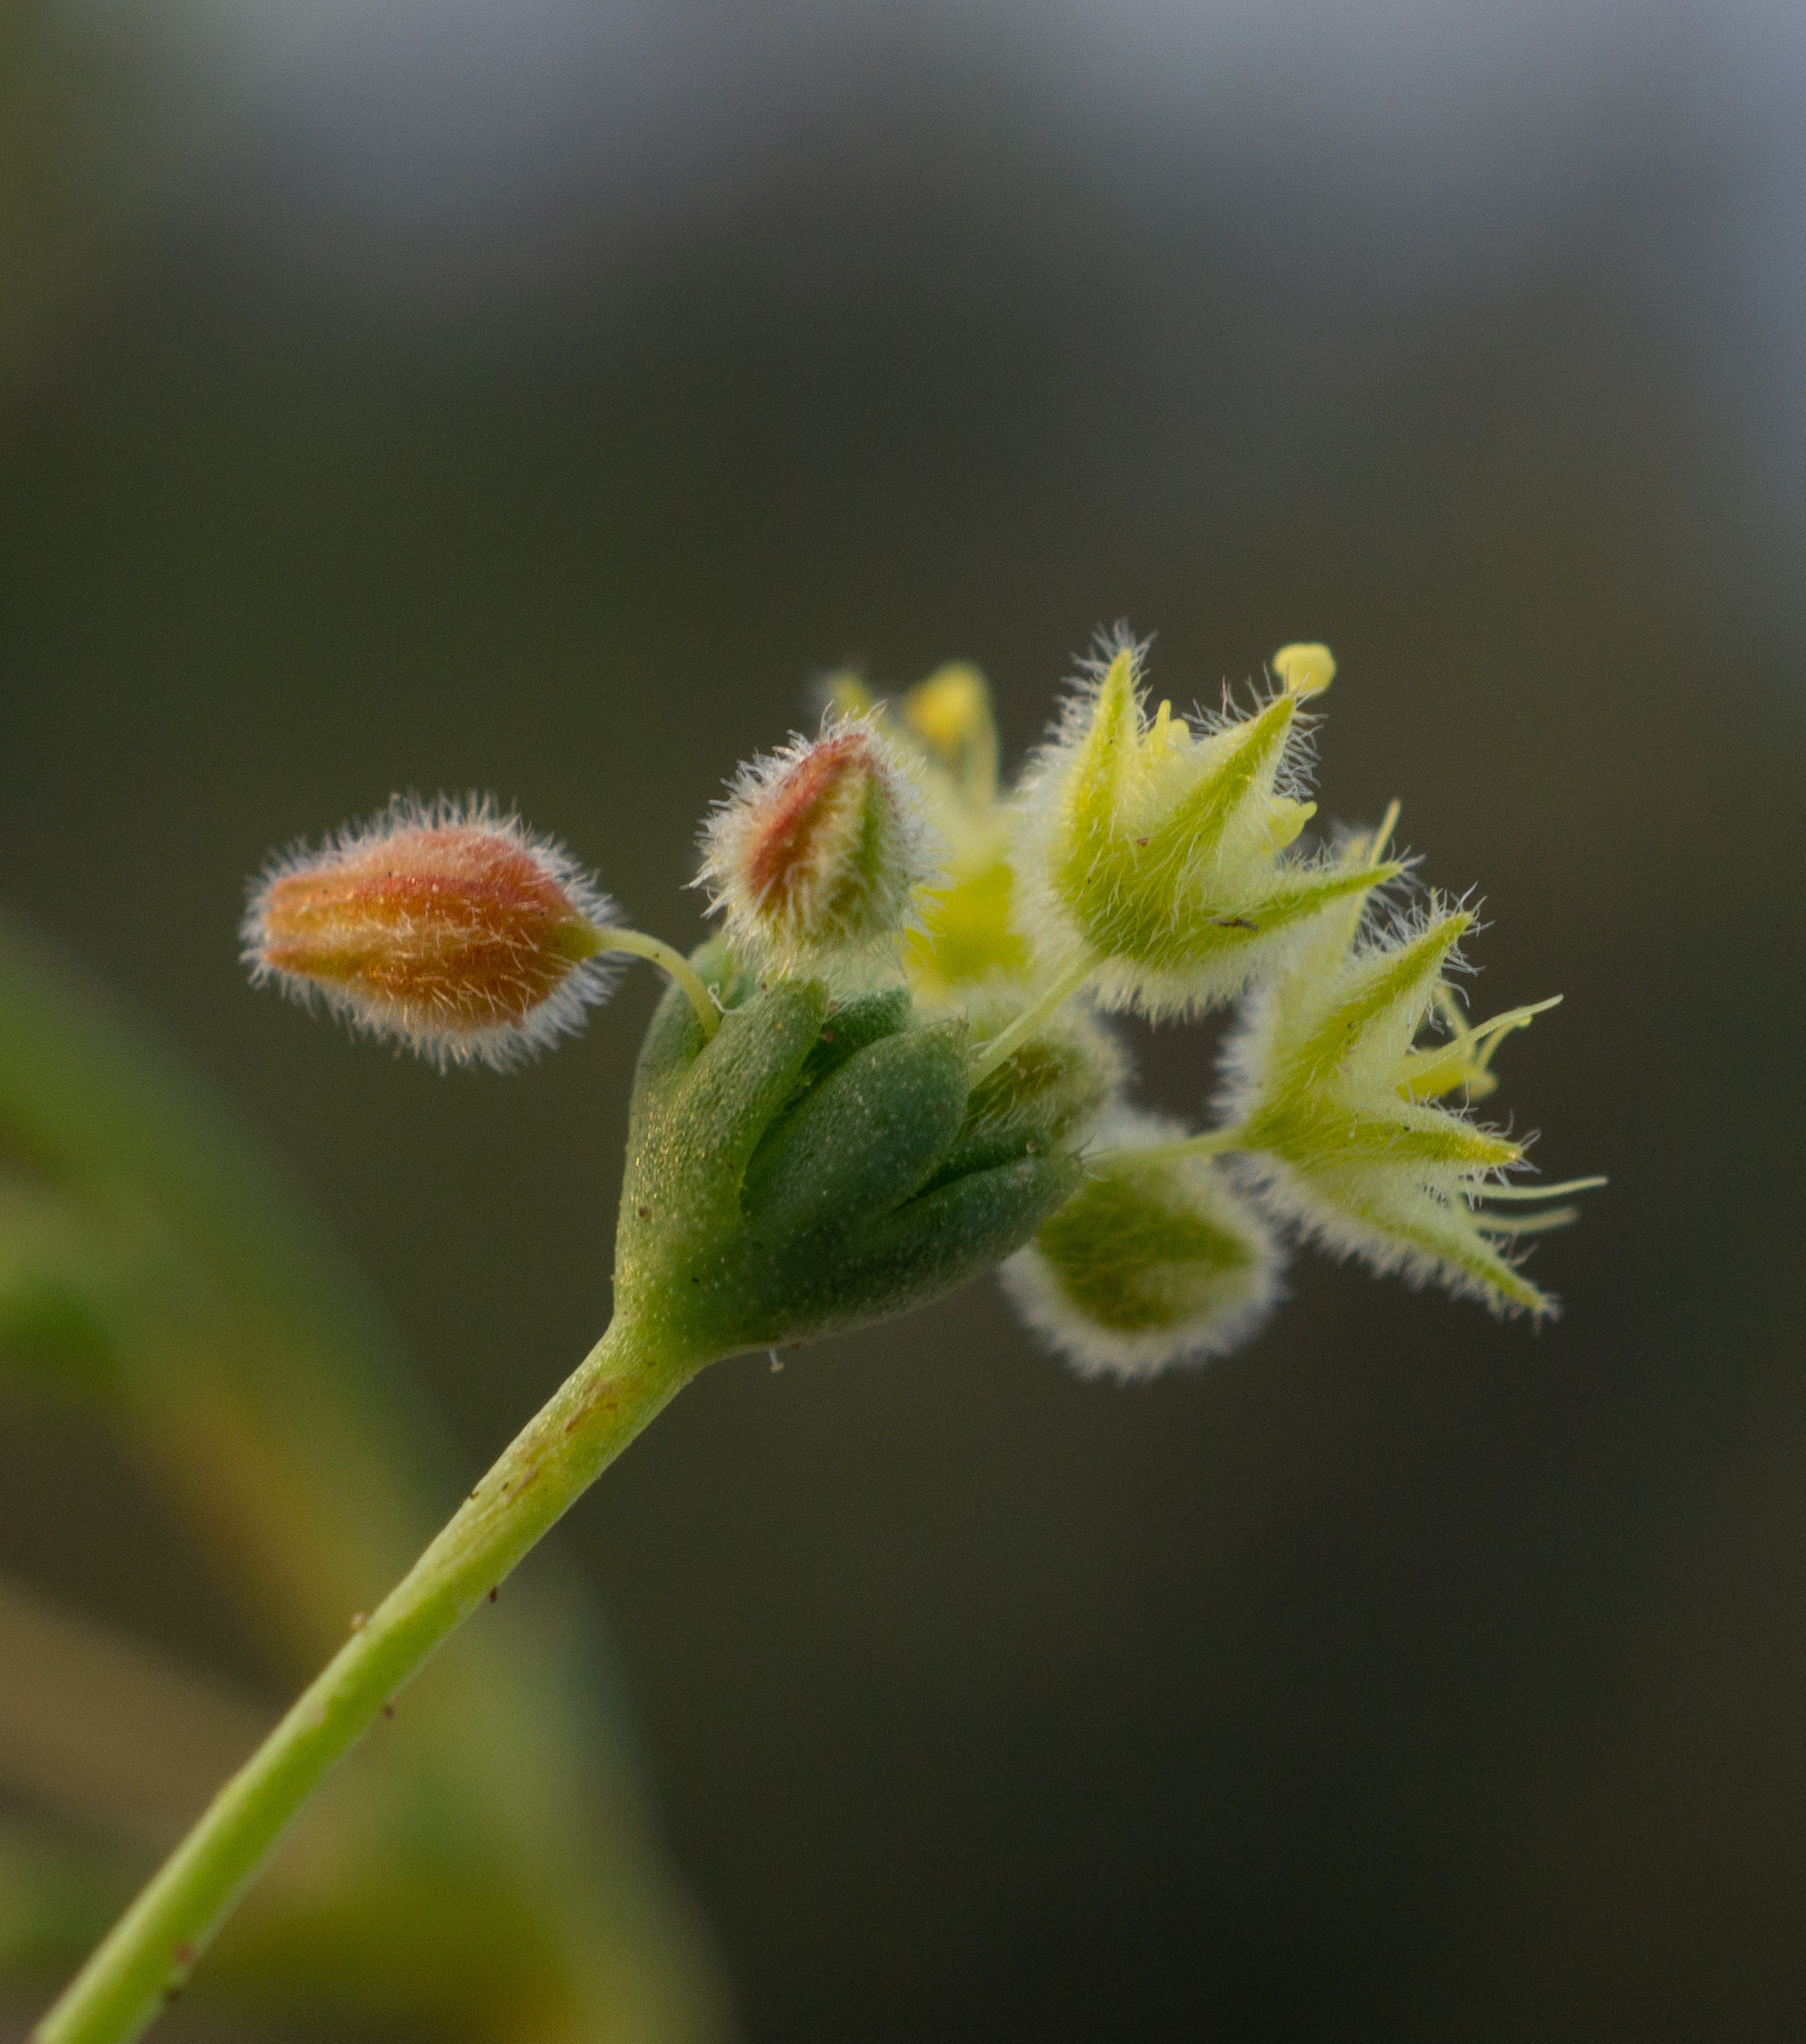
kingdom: Plantae
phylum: Tracheophyta
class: Magnoliopsida
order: Caryophyllales
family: Polygonaceae
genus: Eriogonum
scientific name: Eriogonum howellianum
